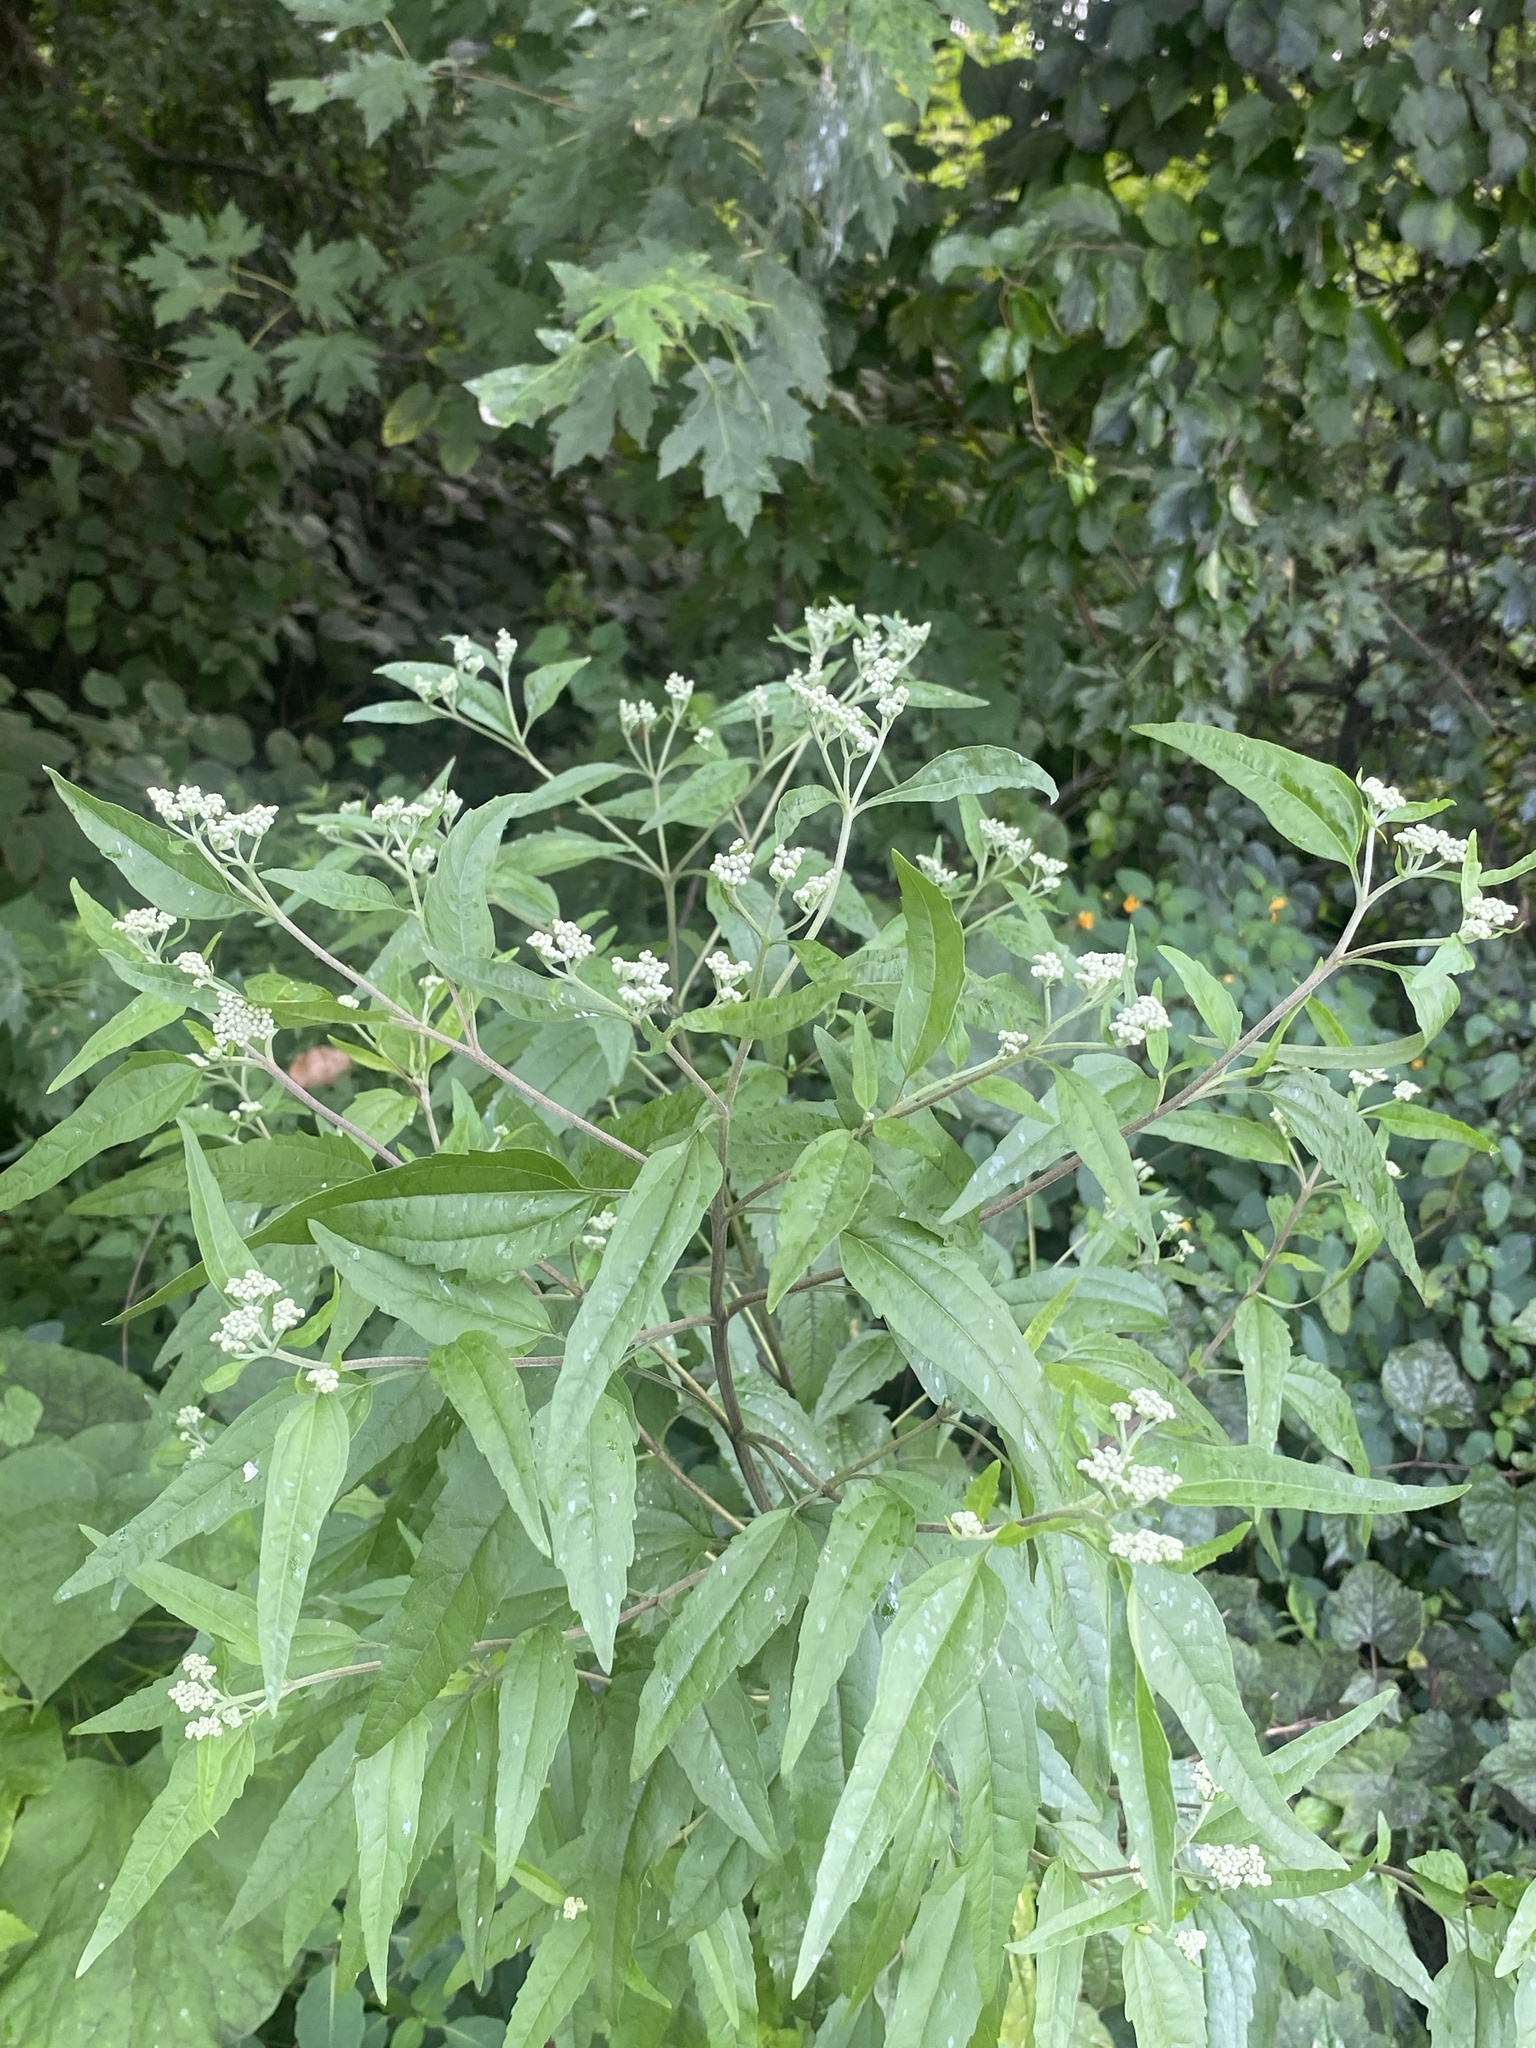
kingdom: Plantae
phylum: Tracheophyta
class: Magnoliopsida
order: Asterales
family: Asteraceae
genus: Eupatorium
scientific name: Eupatorium serotinum
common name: Late boneset
